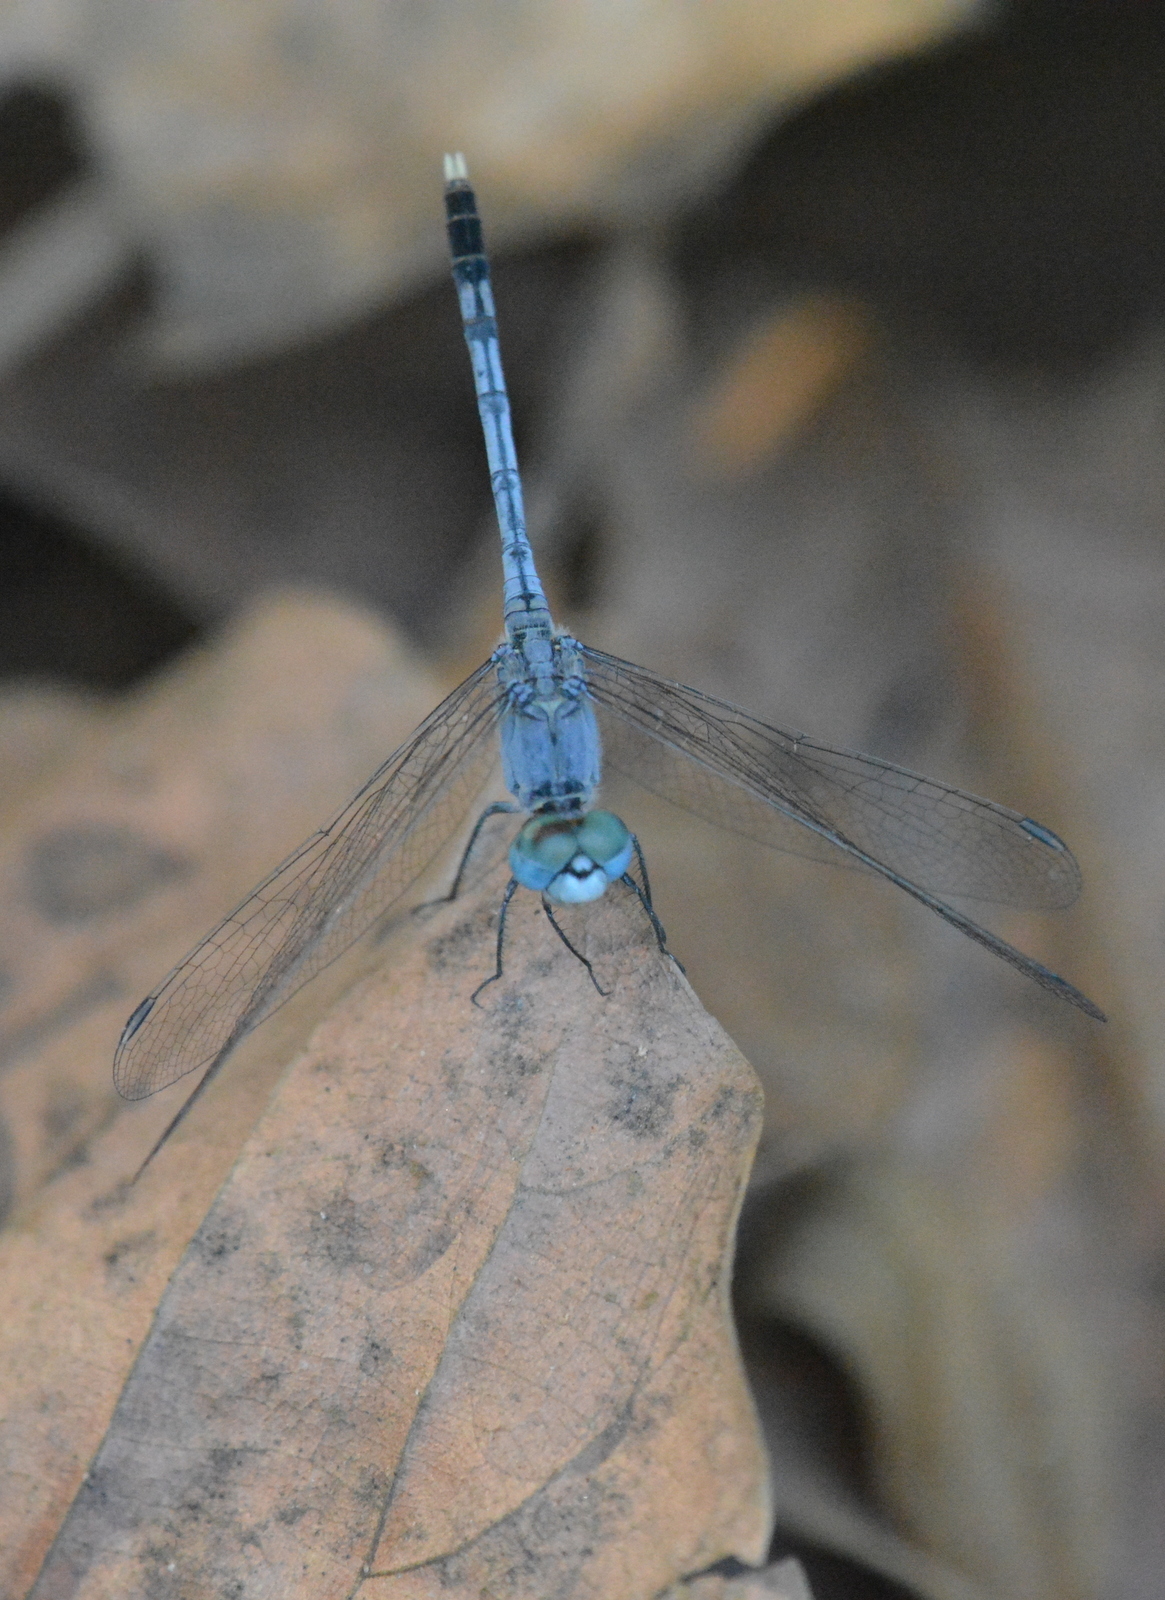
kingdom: Animalia
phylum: Arthropoda
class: Insecta
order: Odonata
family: Libellulidae
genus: Diplacodes
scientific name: Diplacodes trivialis
